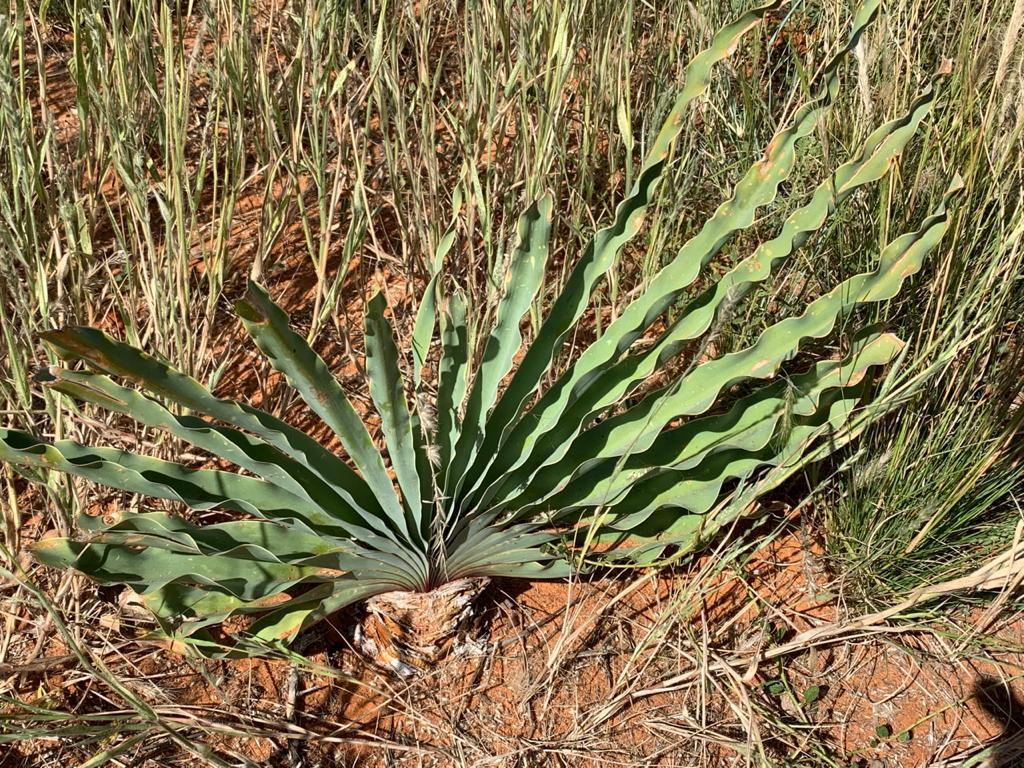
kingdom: Plantae
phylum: Tracheophyta
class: Liliopsida
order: Asparagales
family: Amaryllidaceae
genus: Boophone
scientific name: Boophone disticha
